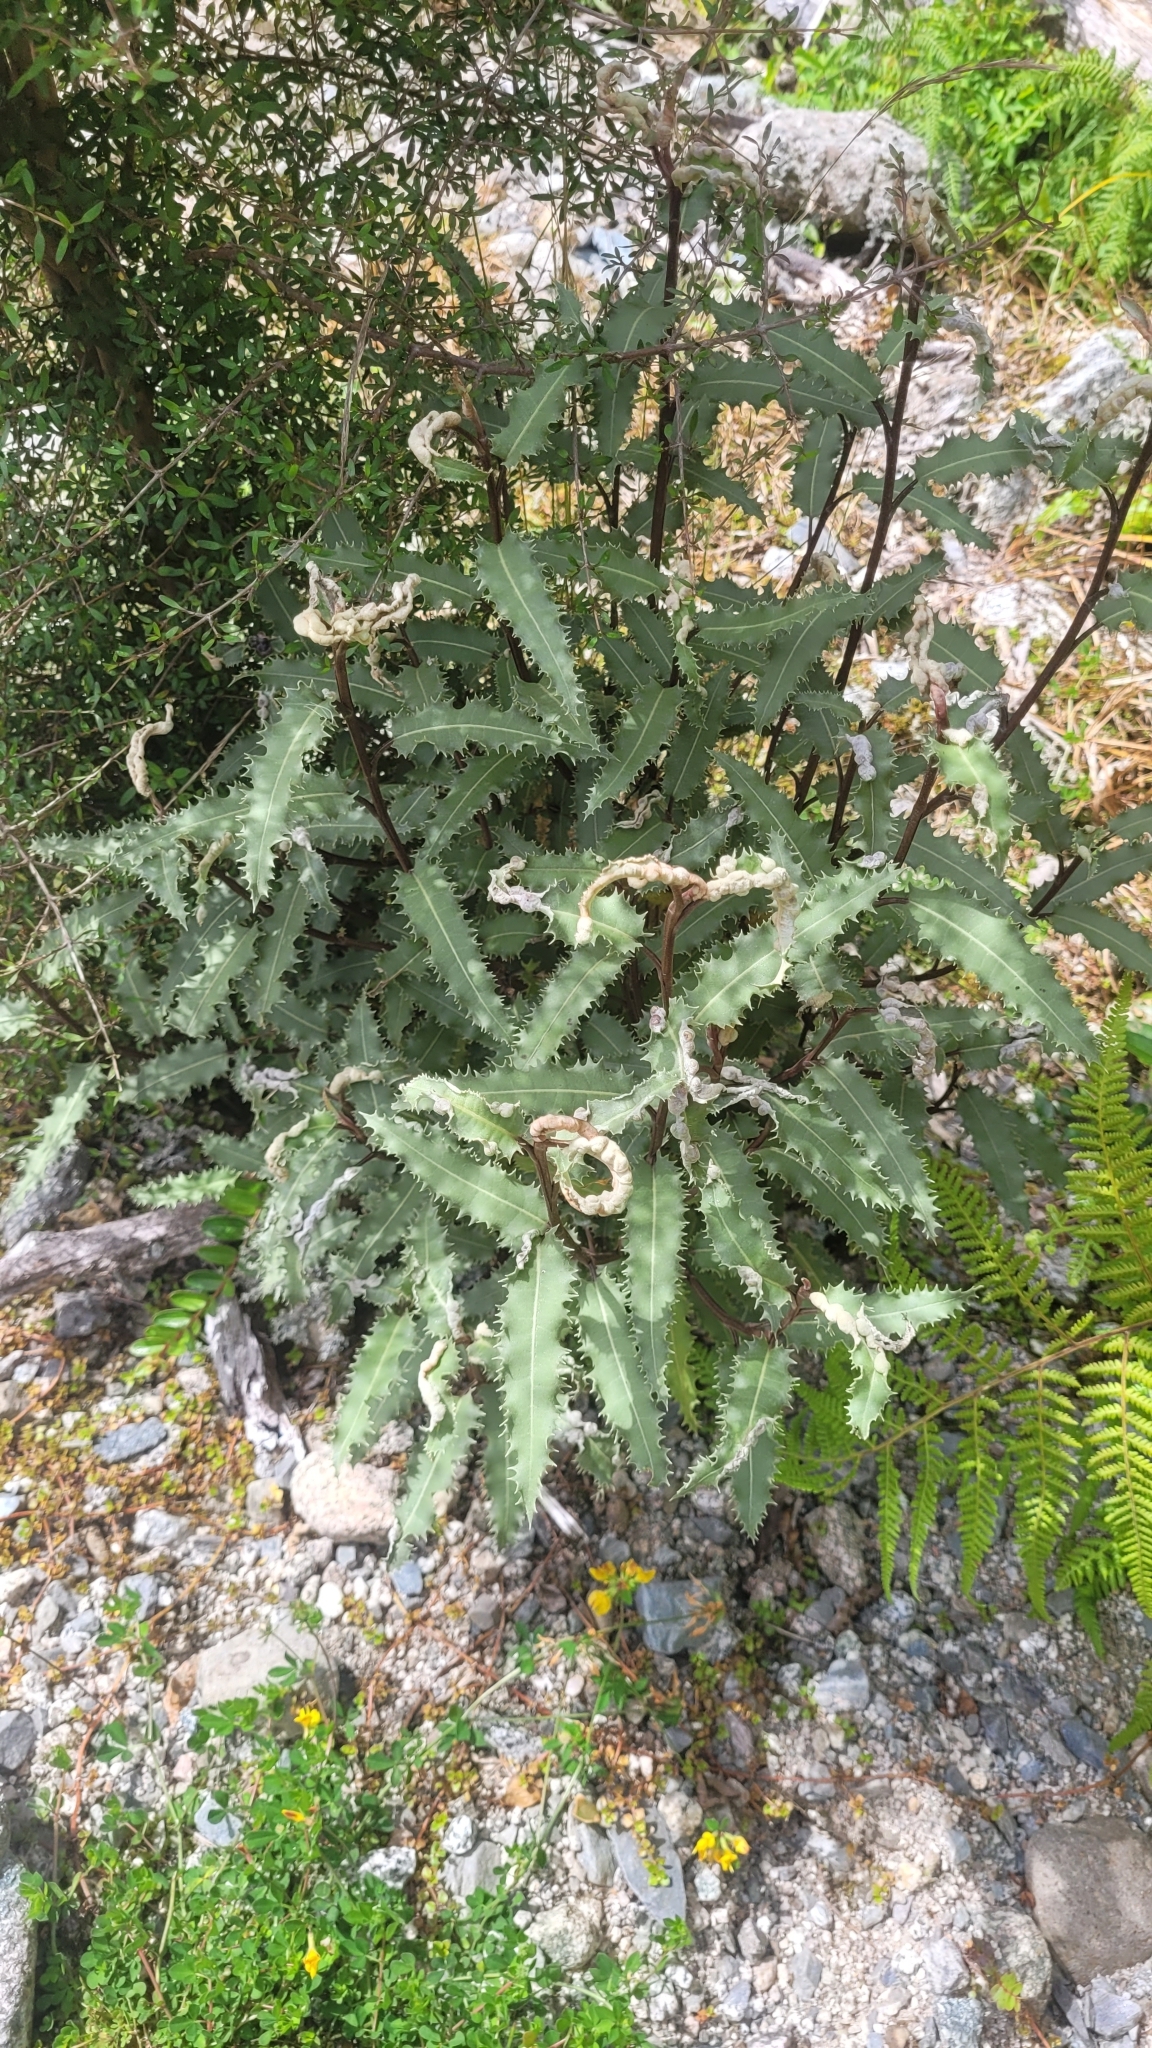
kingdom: Plantae
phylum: Tracheophyta
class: Magnoliopsida
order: Asterales
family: Asteraceae
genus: Olearia
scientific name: Olearia ilicifolia
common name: Maori-holly
